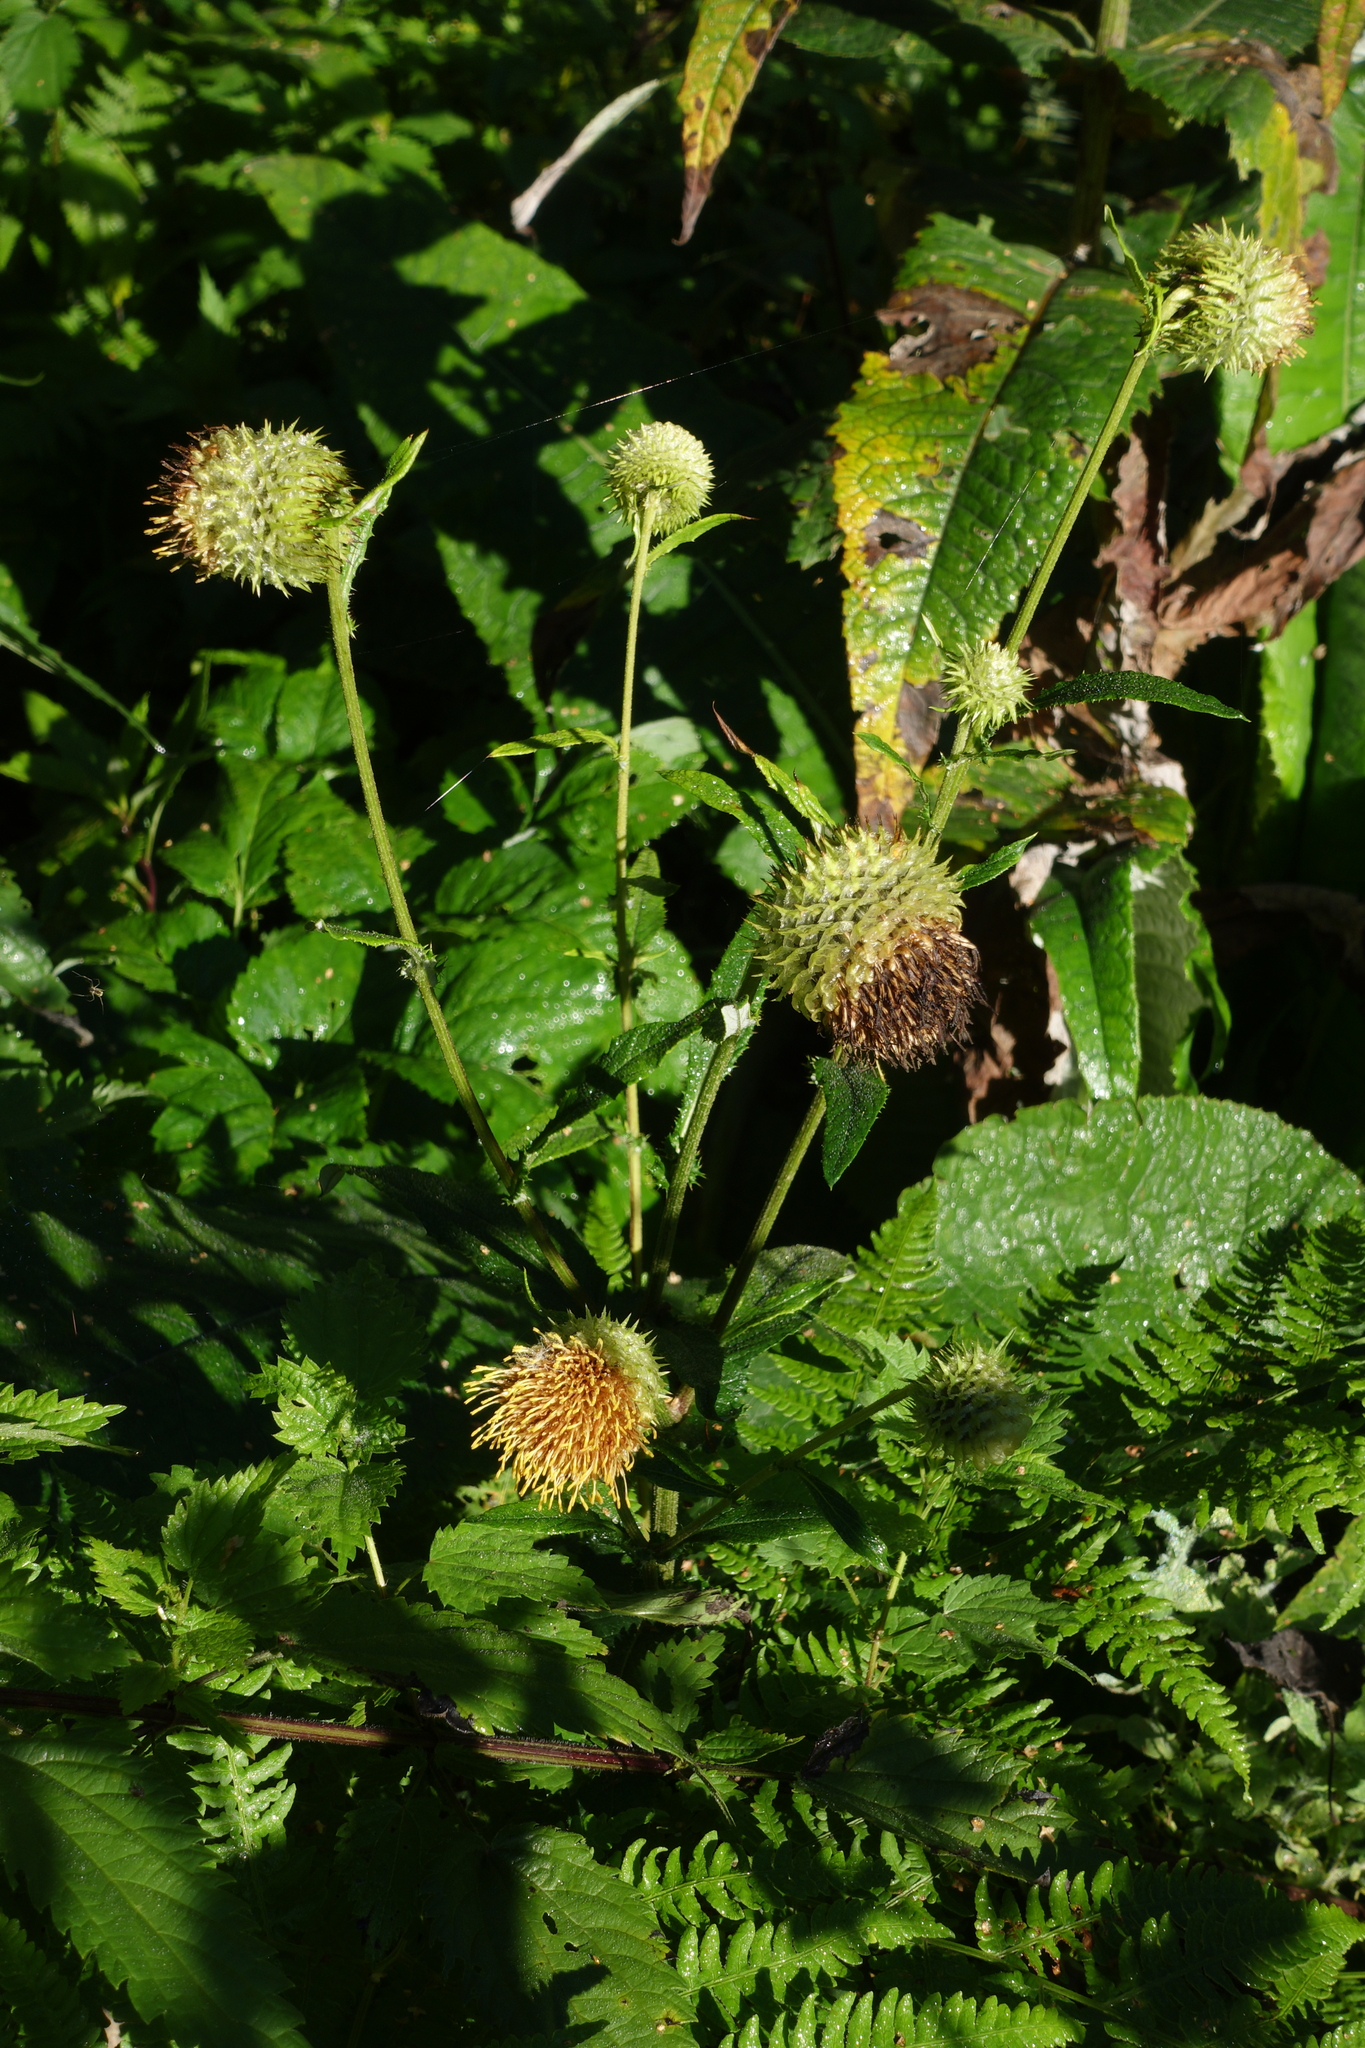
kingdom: Plantae
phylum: Tracheophyta
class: Magnoliopsida
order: Asterales
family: Asteraceae
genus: Alfredia
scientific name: Alfredia cernua
